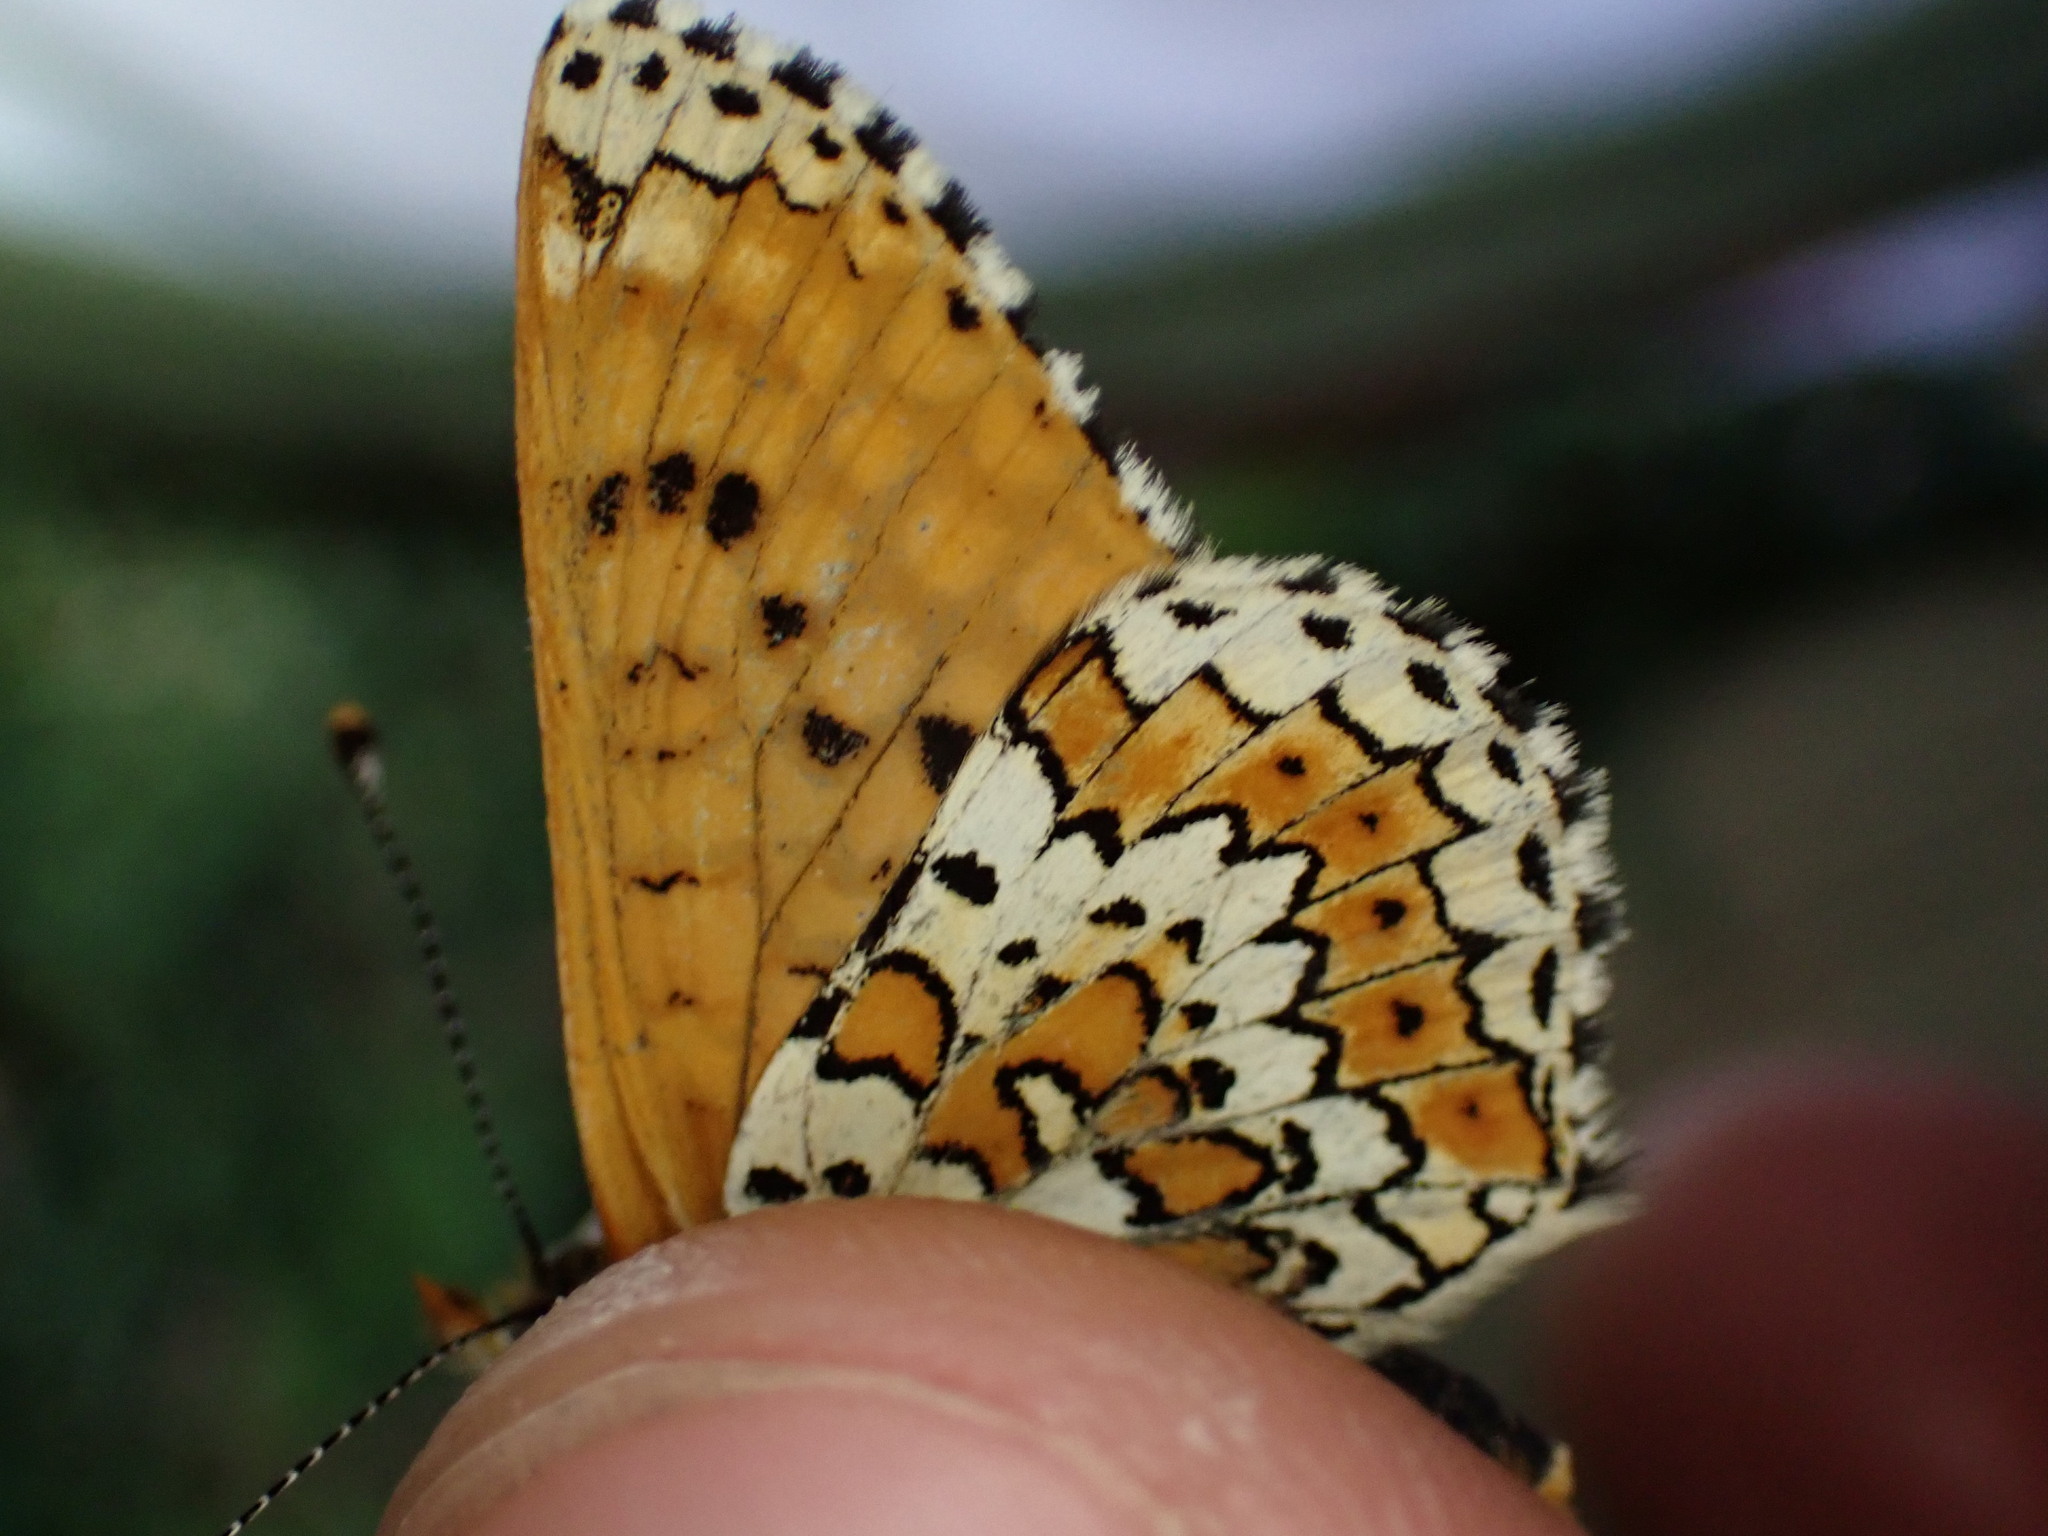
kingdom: Animalia
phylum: Arthropoda
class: Insecta
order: Lepidoptera
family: Nymphalidae
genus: Melitaea
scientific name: Melitaea cinxia
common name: Glanville fritillary
